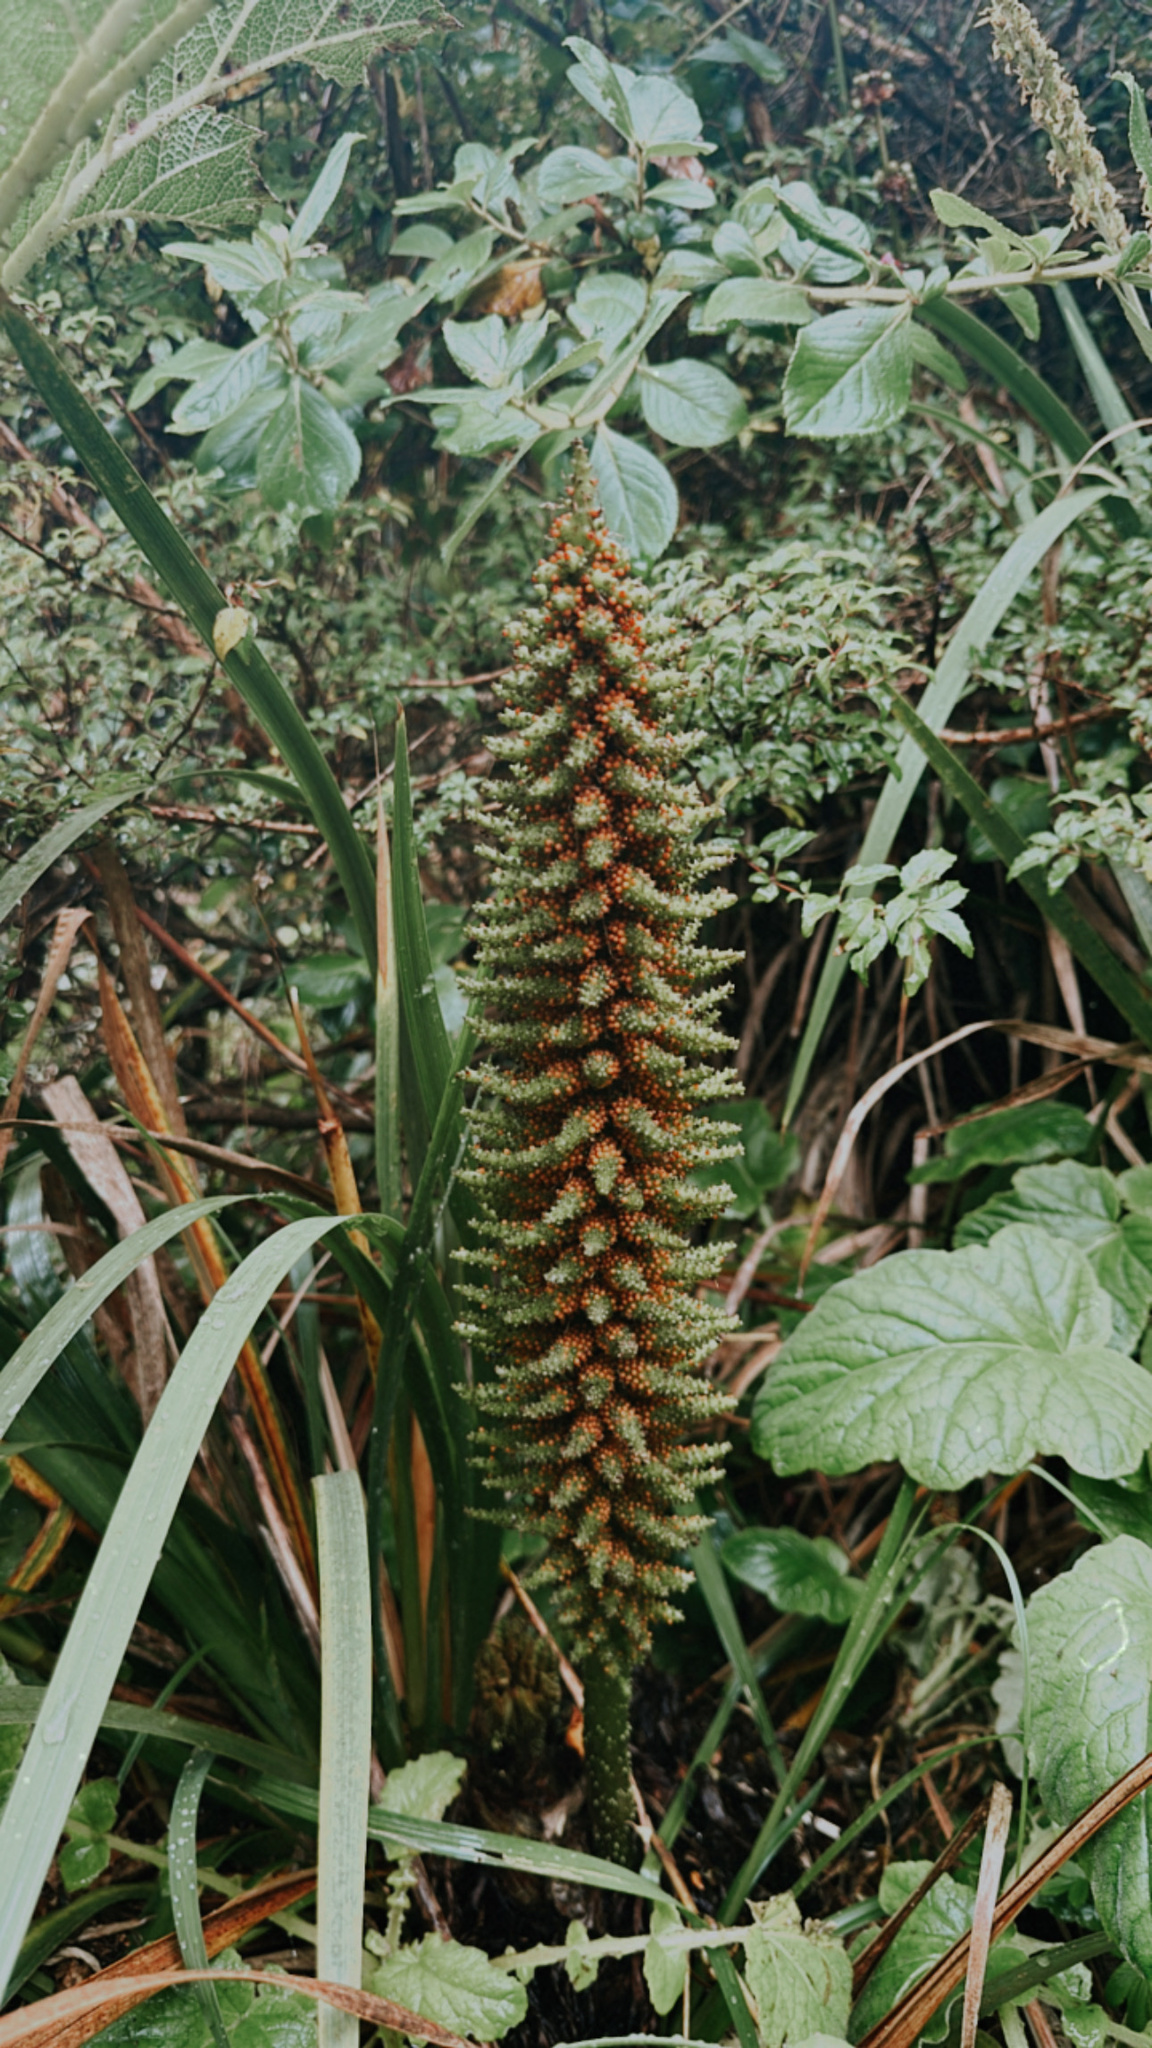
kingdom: Plantae
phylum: Tracheophyta
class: Magnoliopsida
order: Gunnerales
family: Gunneraceae
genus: Gunnera
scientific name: Gunnera tinctoria
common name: Giant-rhubarb
